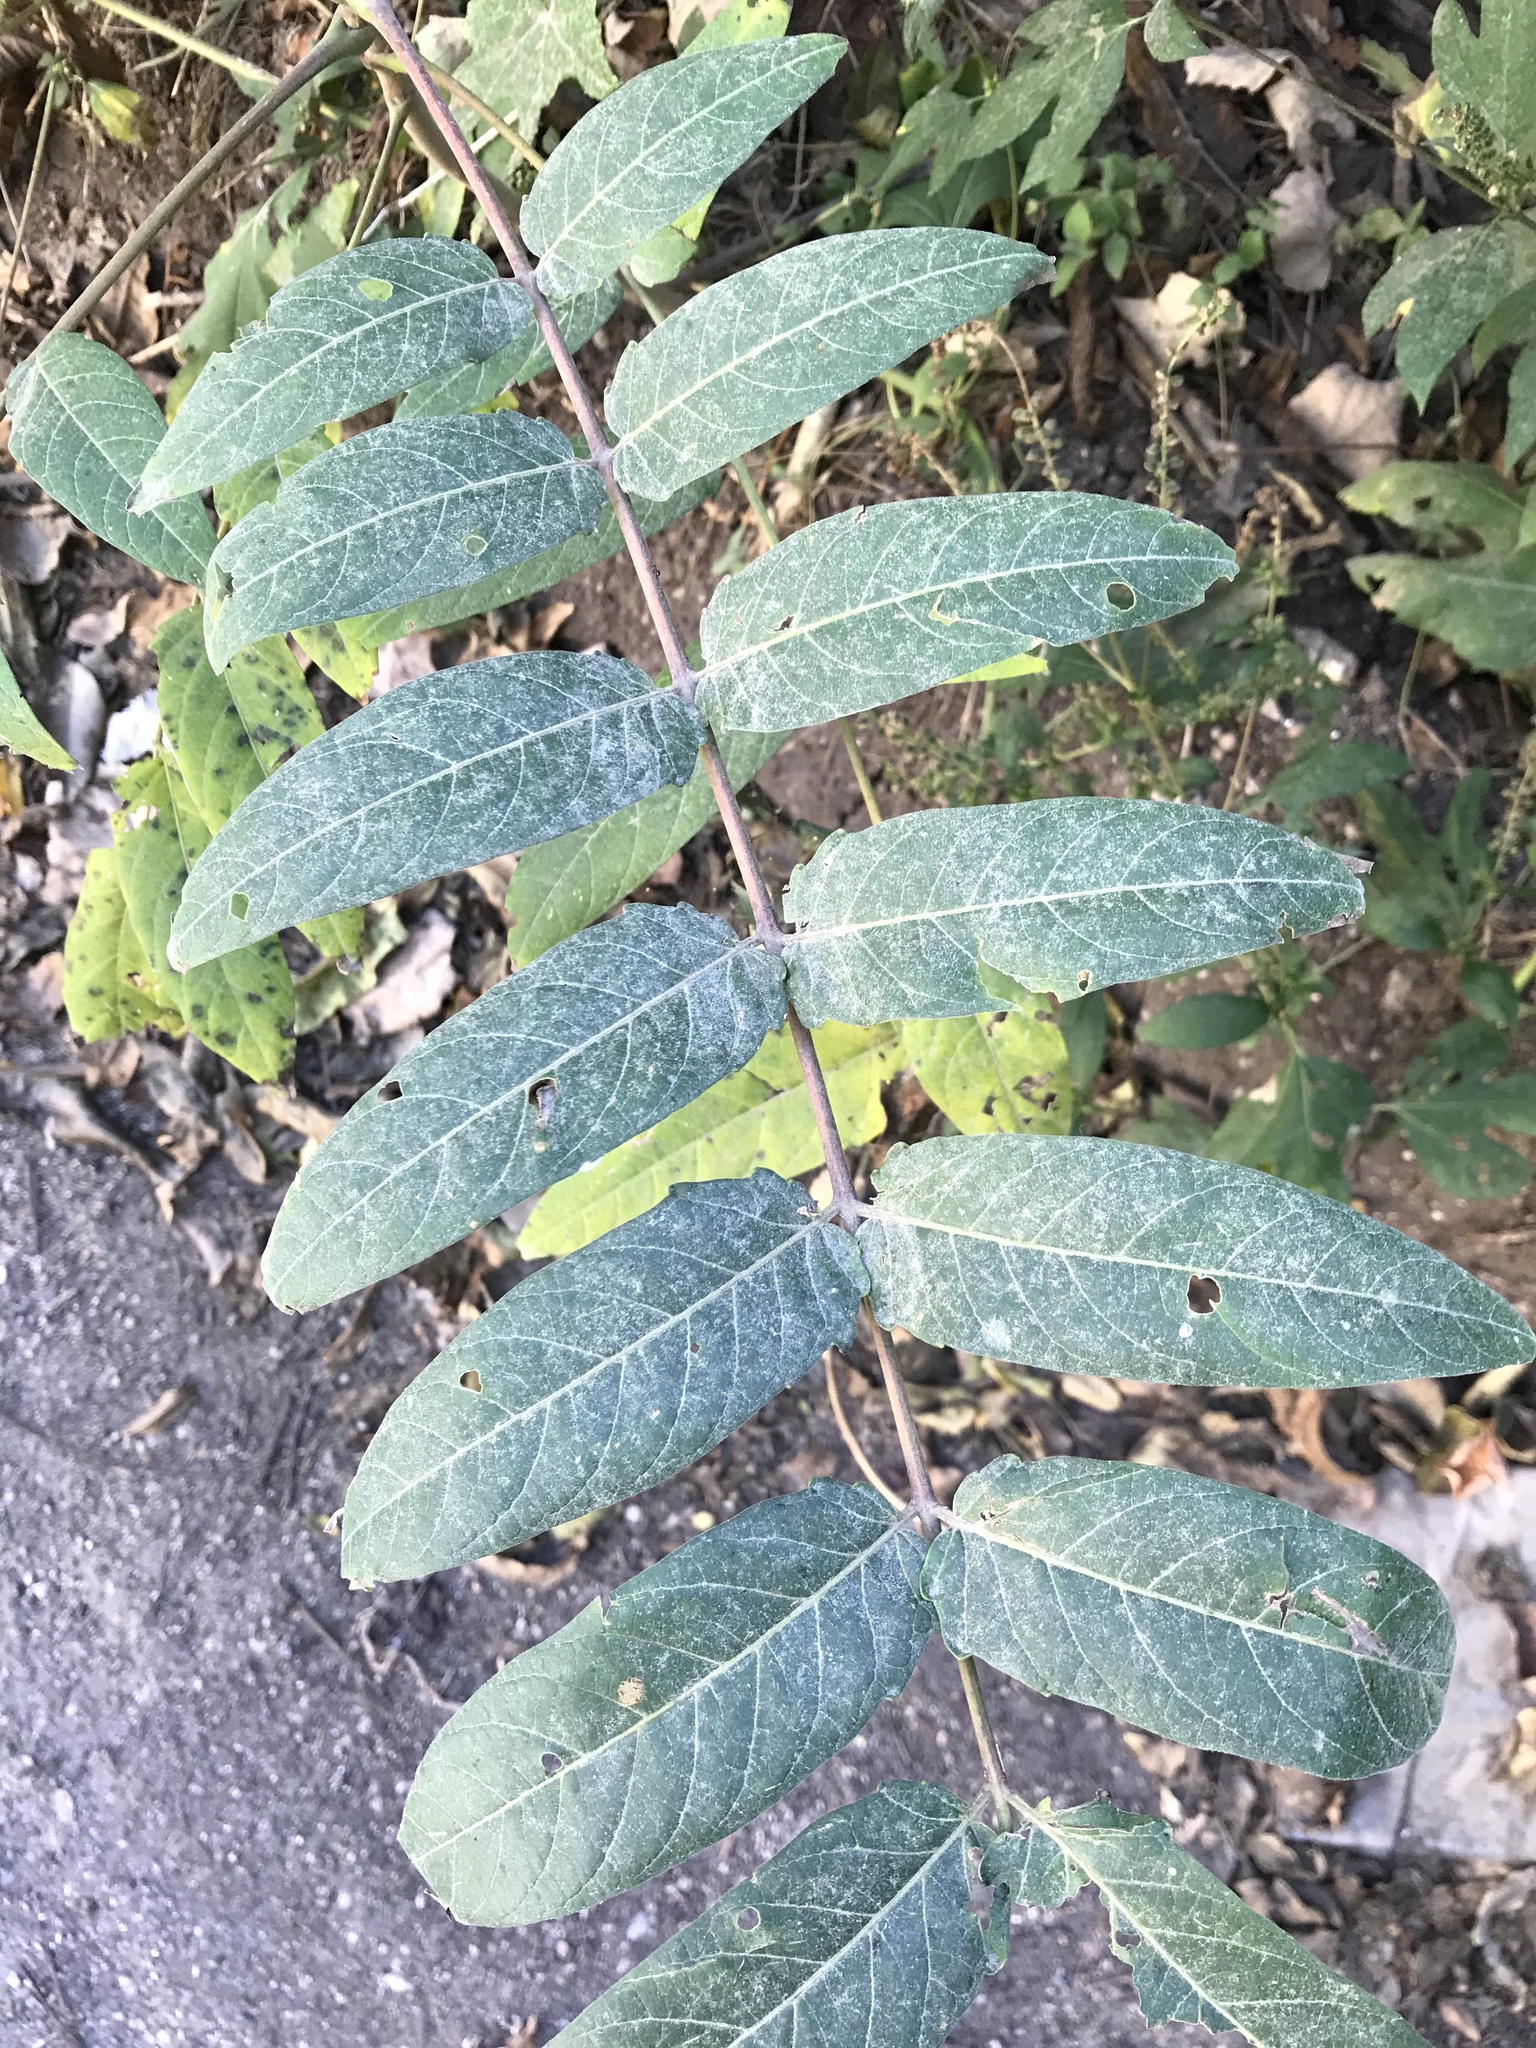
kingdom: Plantae
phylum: Tracheophyta
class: Magnoliopsida
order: Sapindales
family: Simaroubaceae
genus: Ailanthus
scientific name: Ailanthus altissima
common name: Tree-of-heaven
